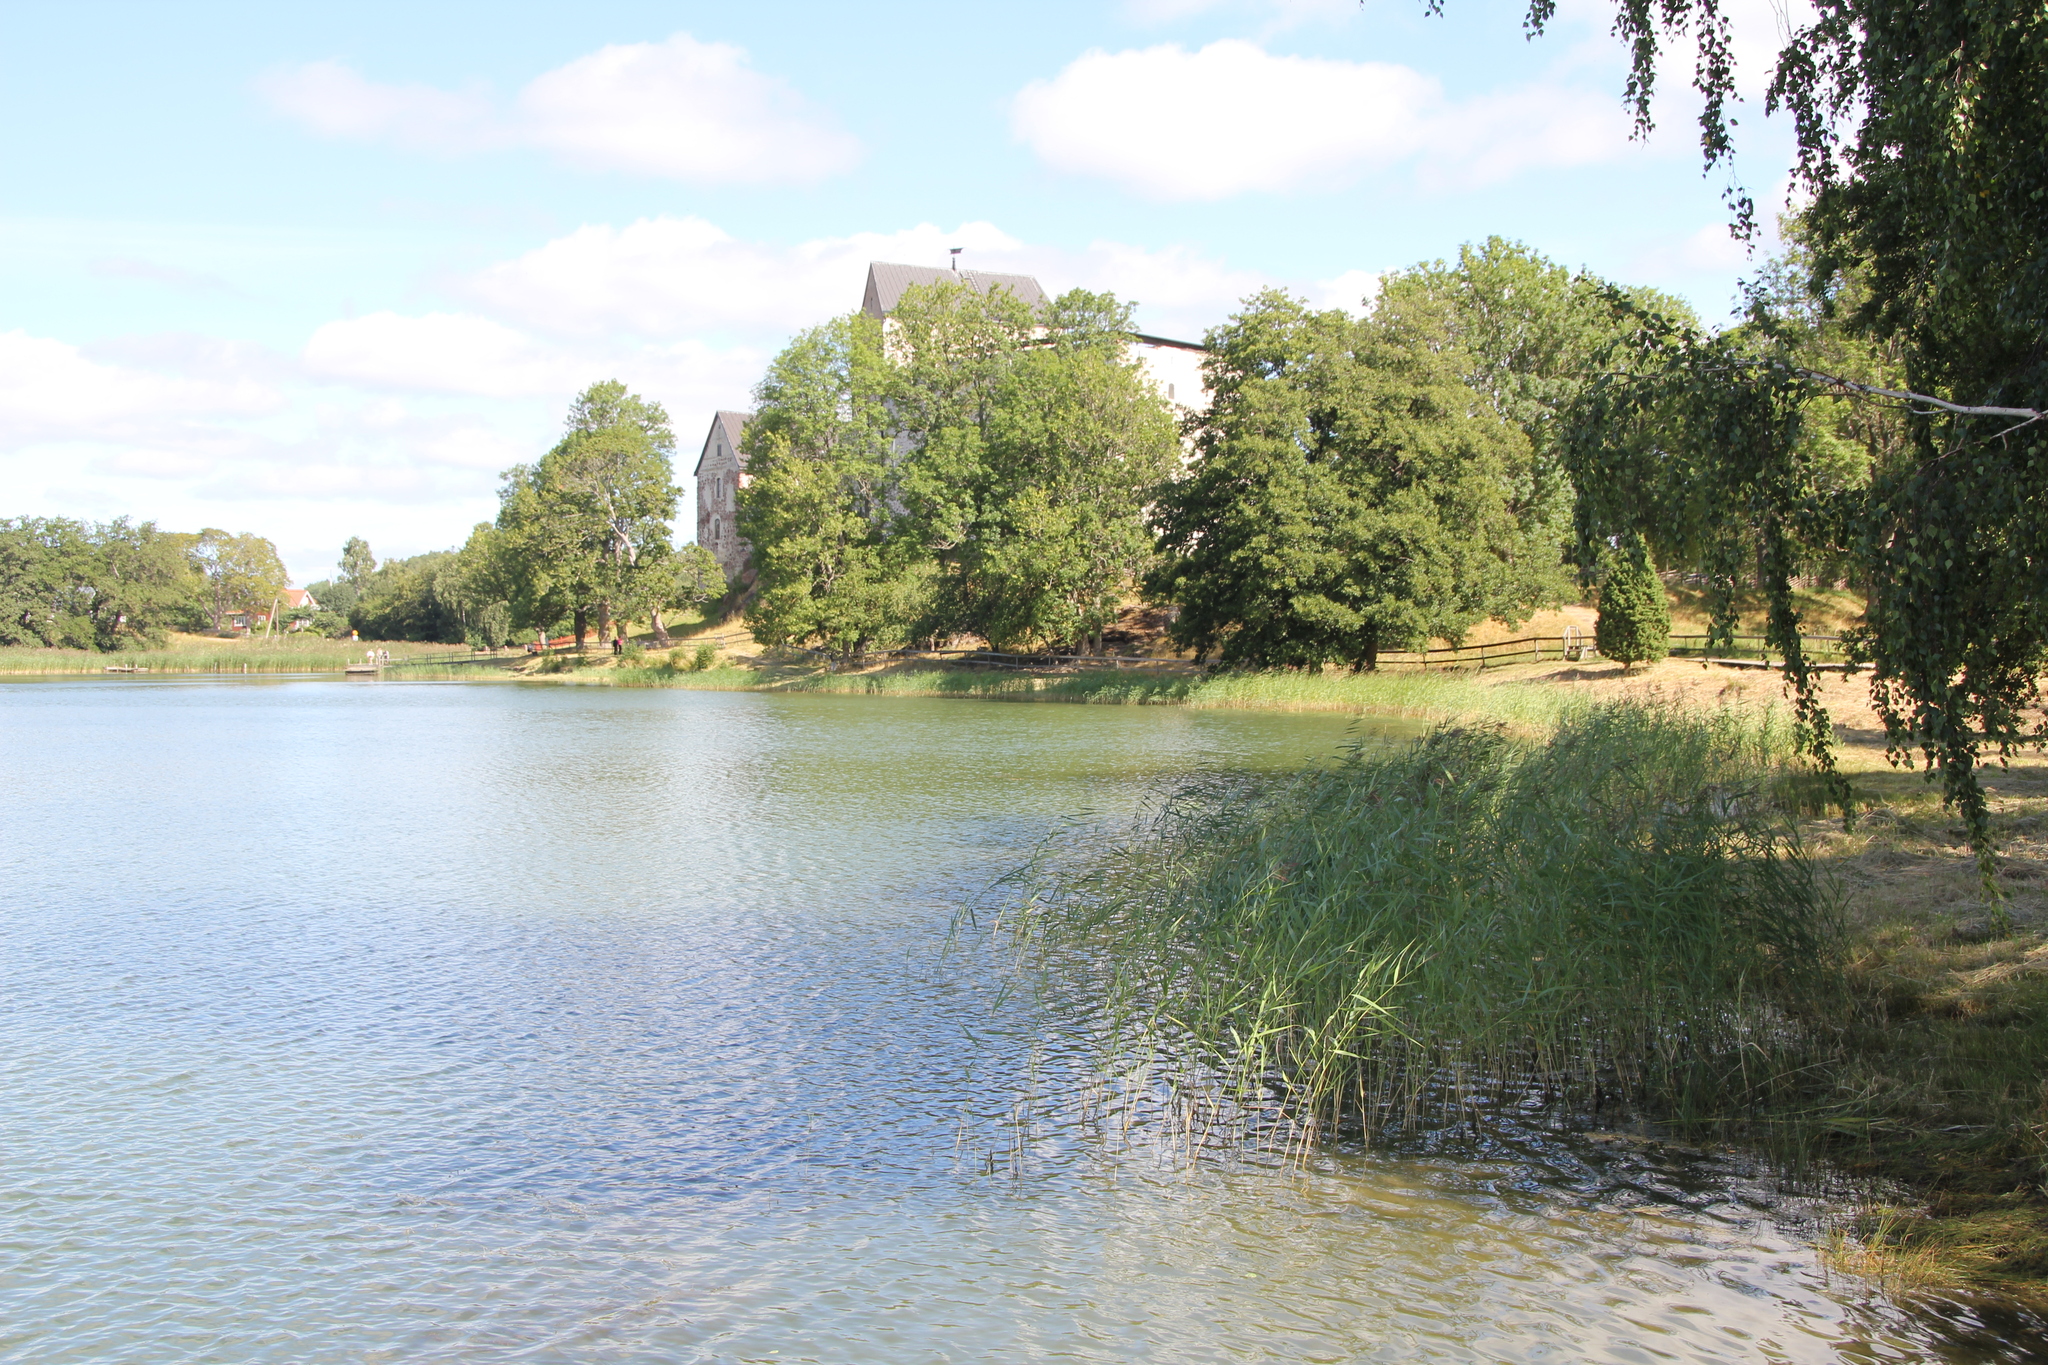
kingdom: Plantae
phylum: Tracheophyta
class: Liliopsida
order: Poales
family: Poaceae
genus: Phragmites
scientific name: Phragmites australis
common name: Common reed
